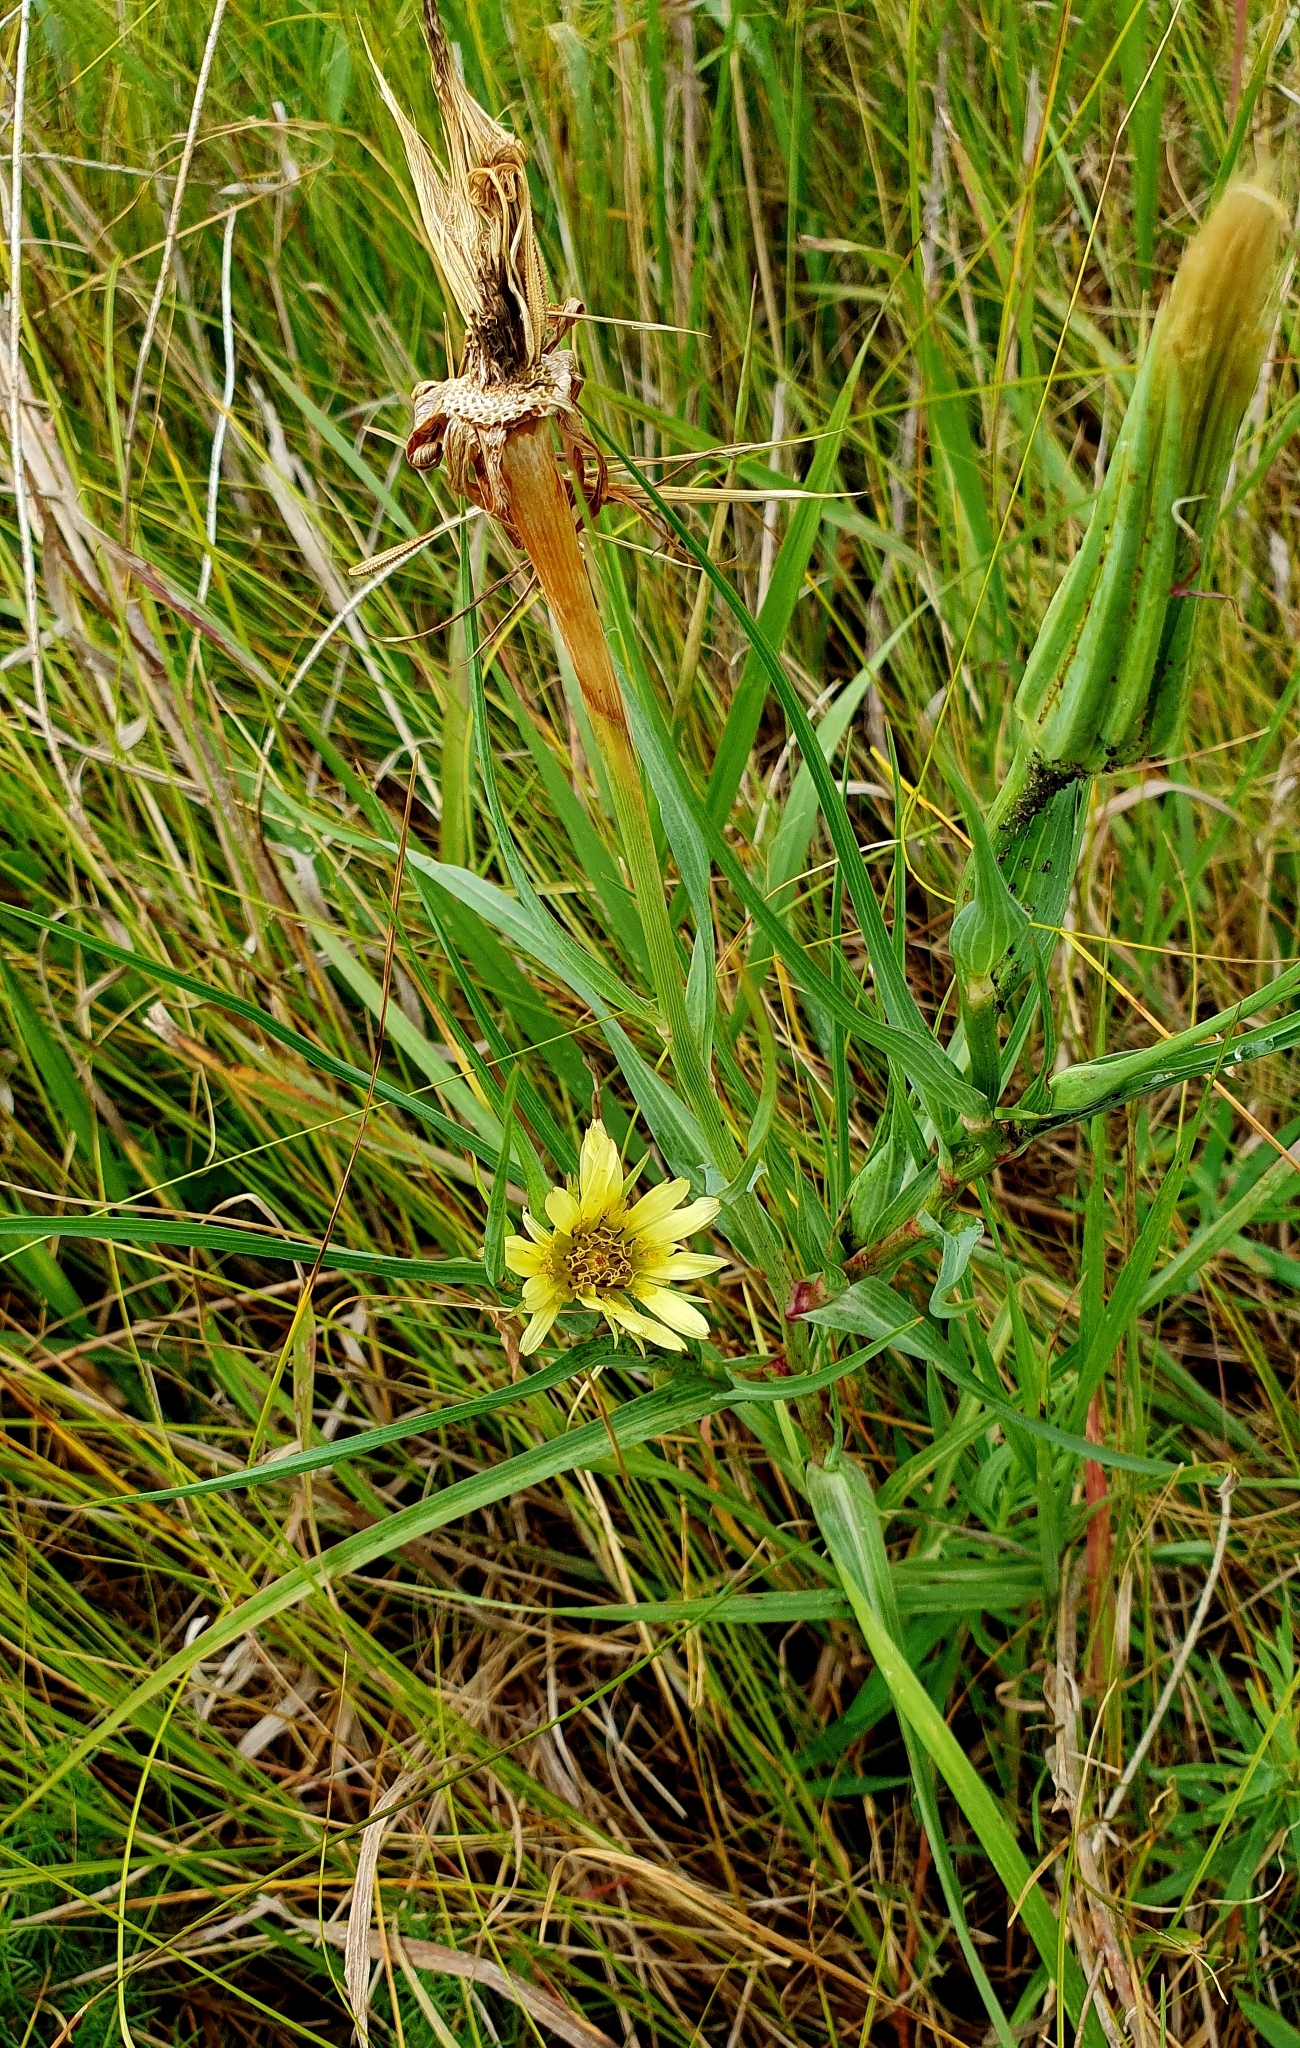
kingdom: Plantae
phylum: Tracheophyta
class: Magnoliopsida
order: Asterales
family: Asteraceae
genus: Tragopogon
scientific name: Tragopogon dubius
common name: Yellow salsify
